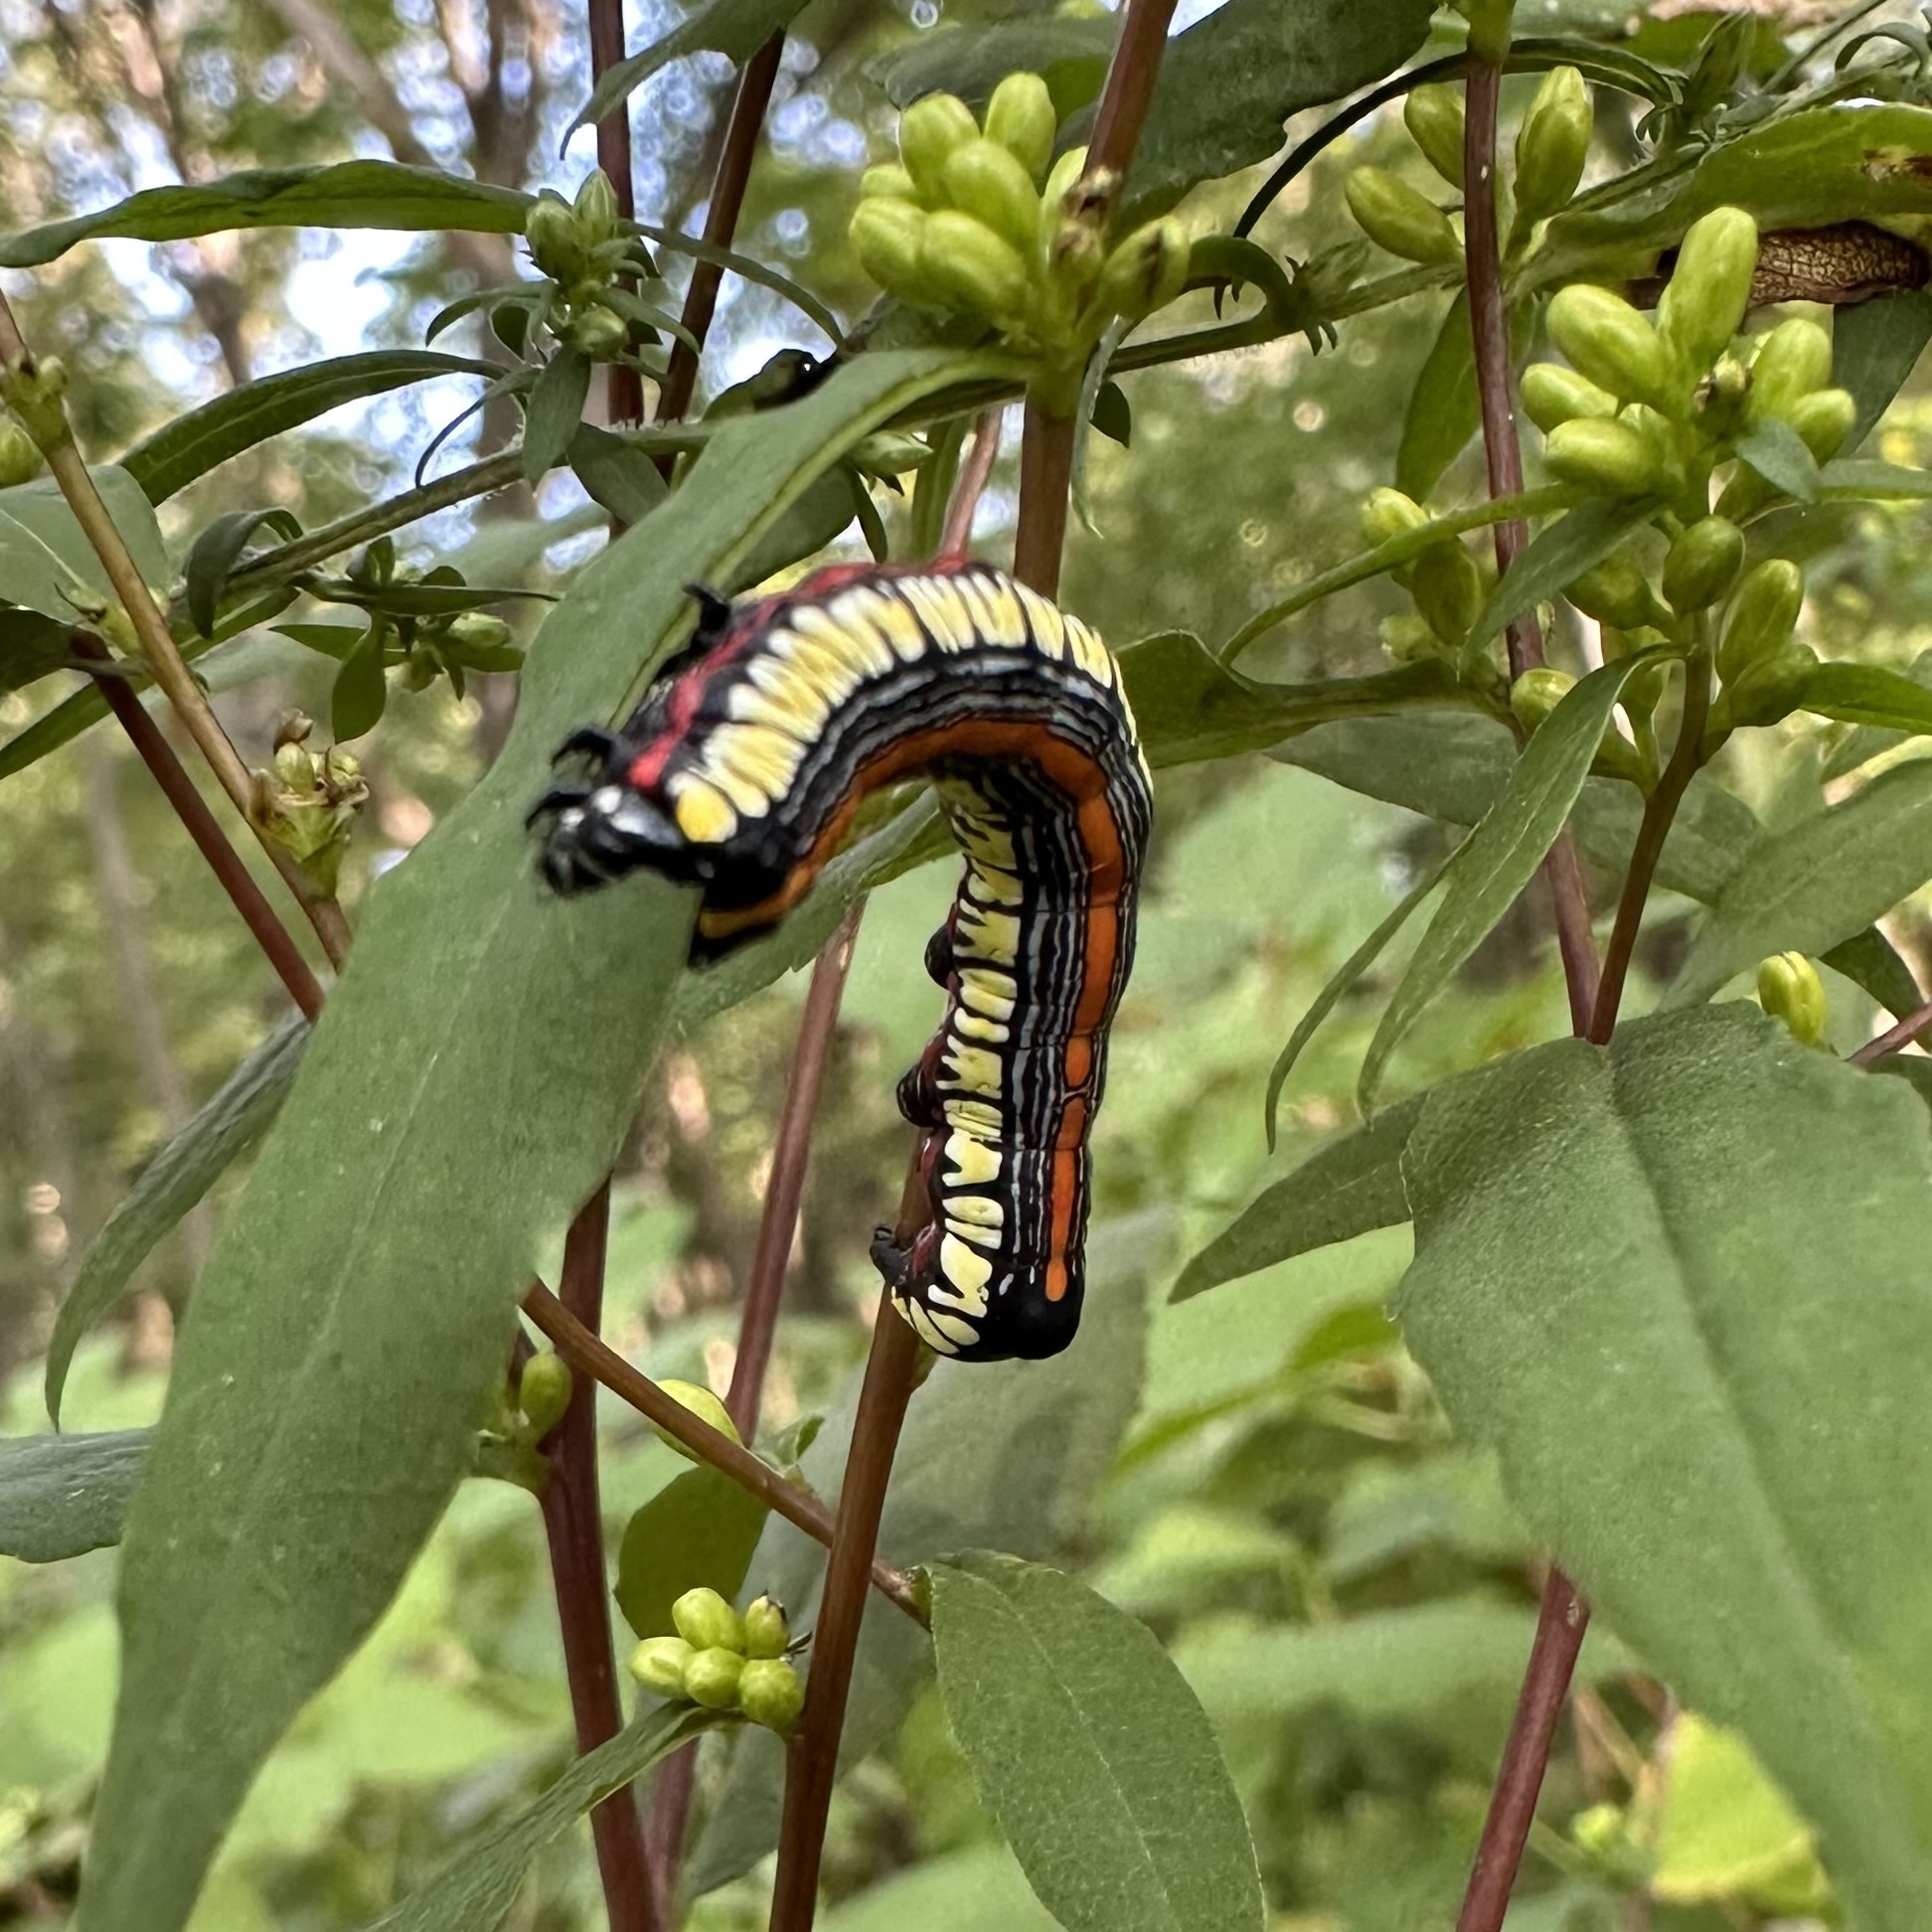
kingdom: Animalia
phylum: Arthropoda
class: Insecta
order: Lepidoptera
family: Noctuidae
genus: Cucullia
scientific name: Cucullia convexipennis
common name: Brown-hooded owlet
